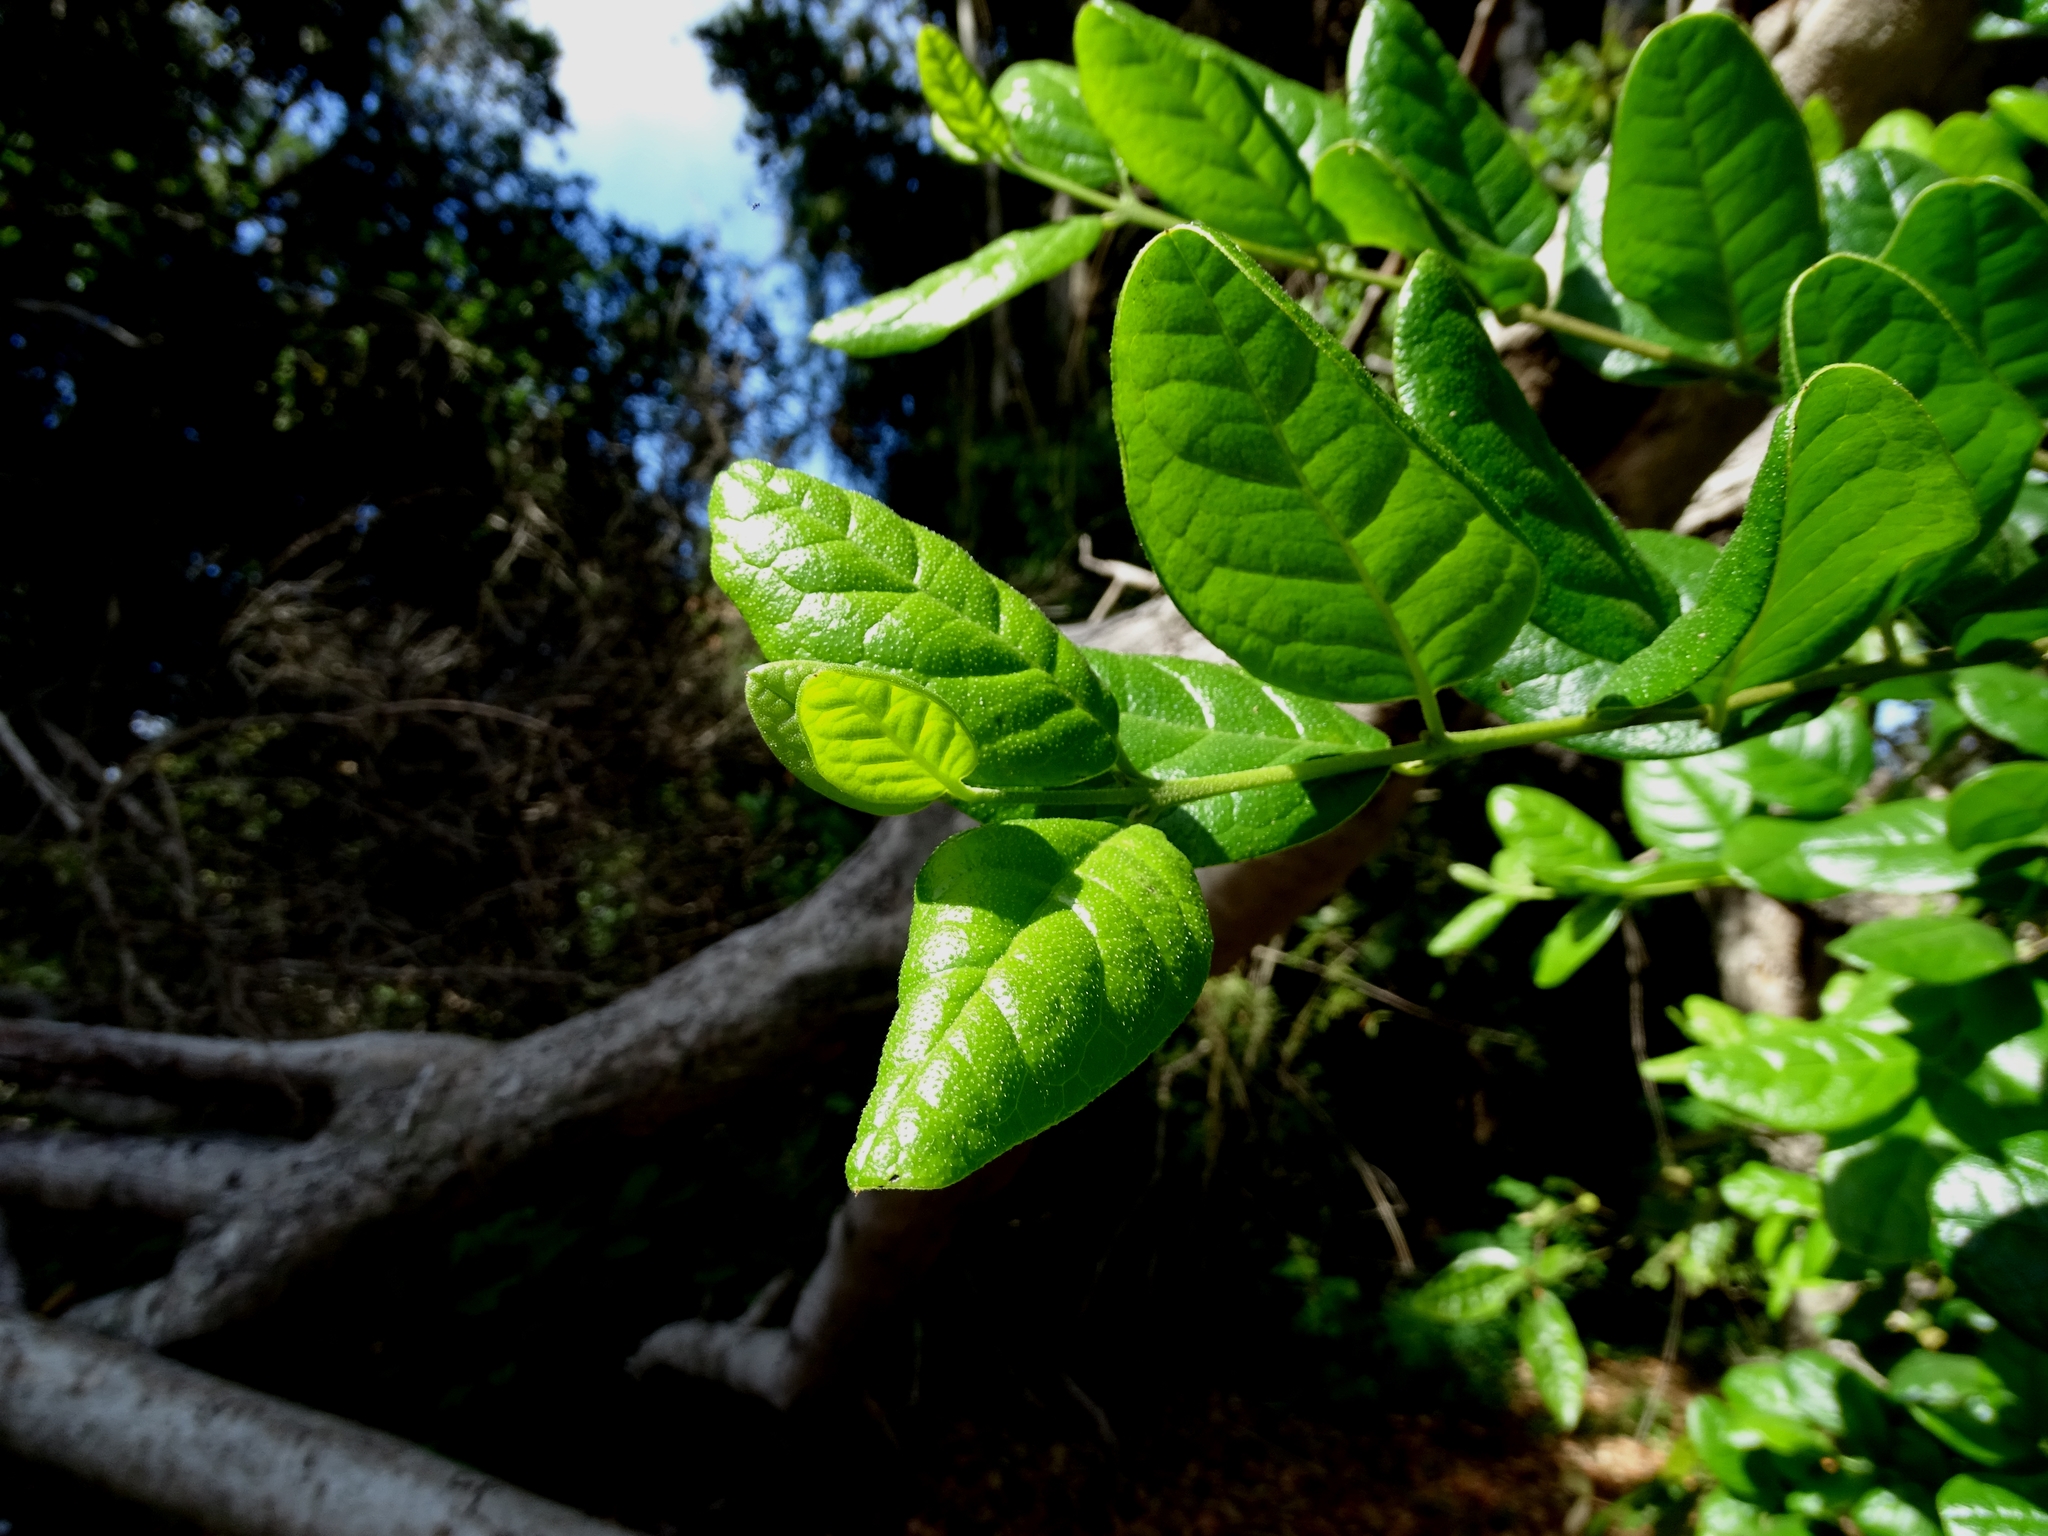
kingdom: Plantae
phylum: Tracheophyta
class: Magnoliopsida
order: Laurales
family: Monimiaceae
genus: Peumus
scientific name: Peumus boldus
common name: Boldo
